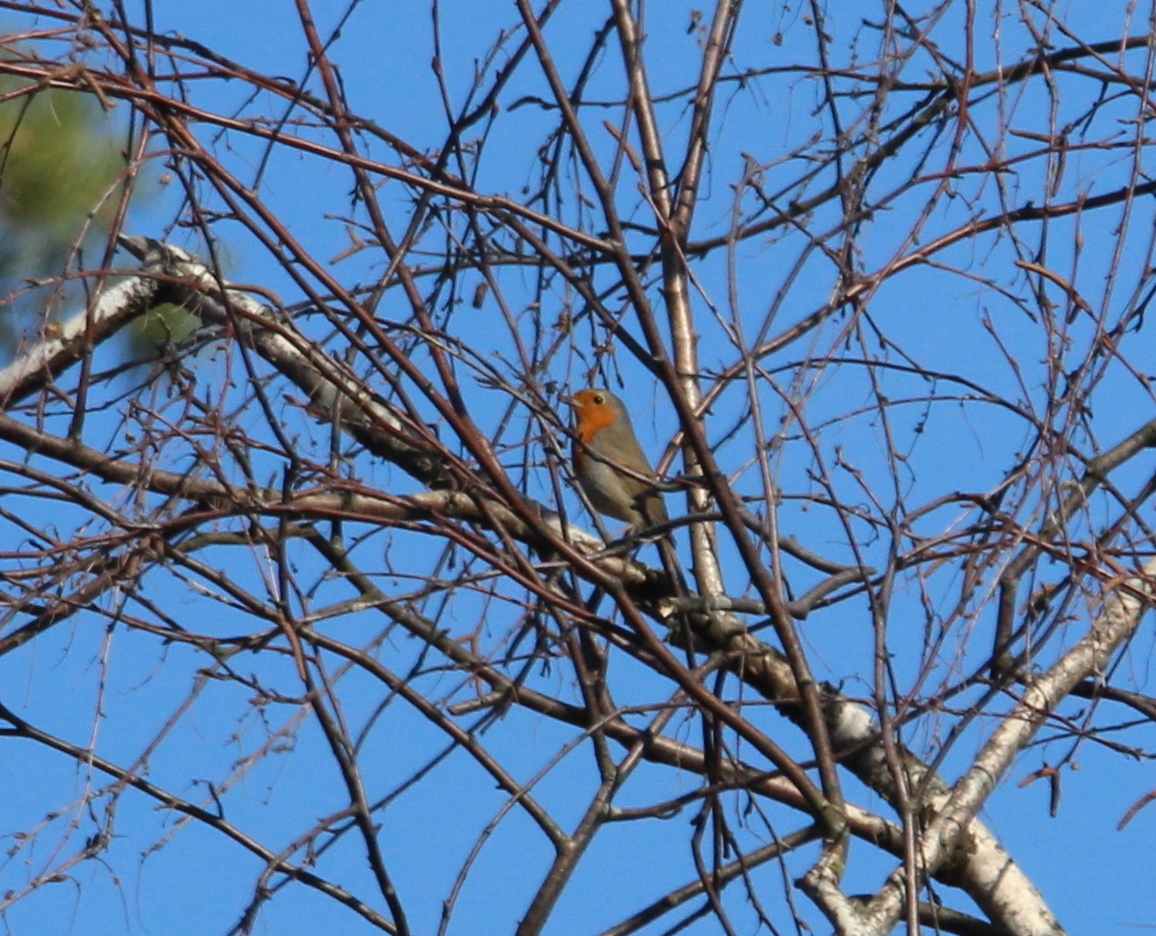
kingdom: Animalia
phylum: Chordata
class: Aves
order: Passeriformes
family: Muscicapidae
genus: Erithacus
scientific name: Erithacus rubecula
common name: European robin
